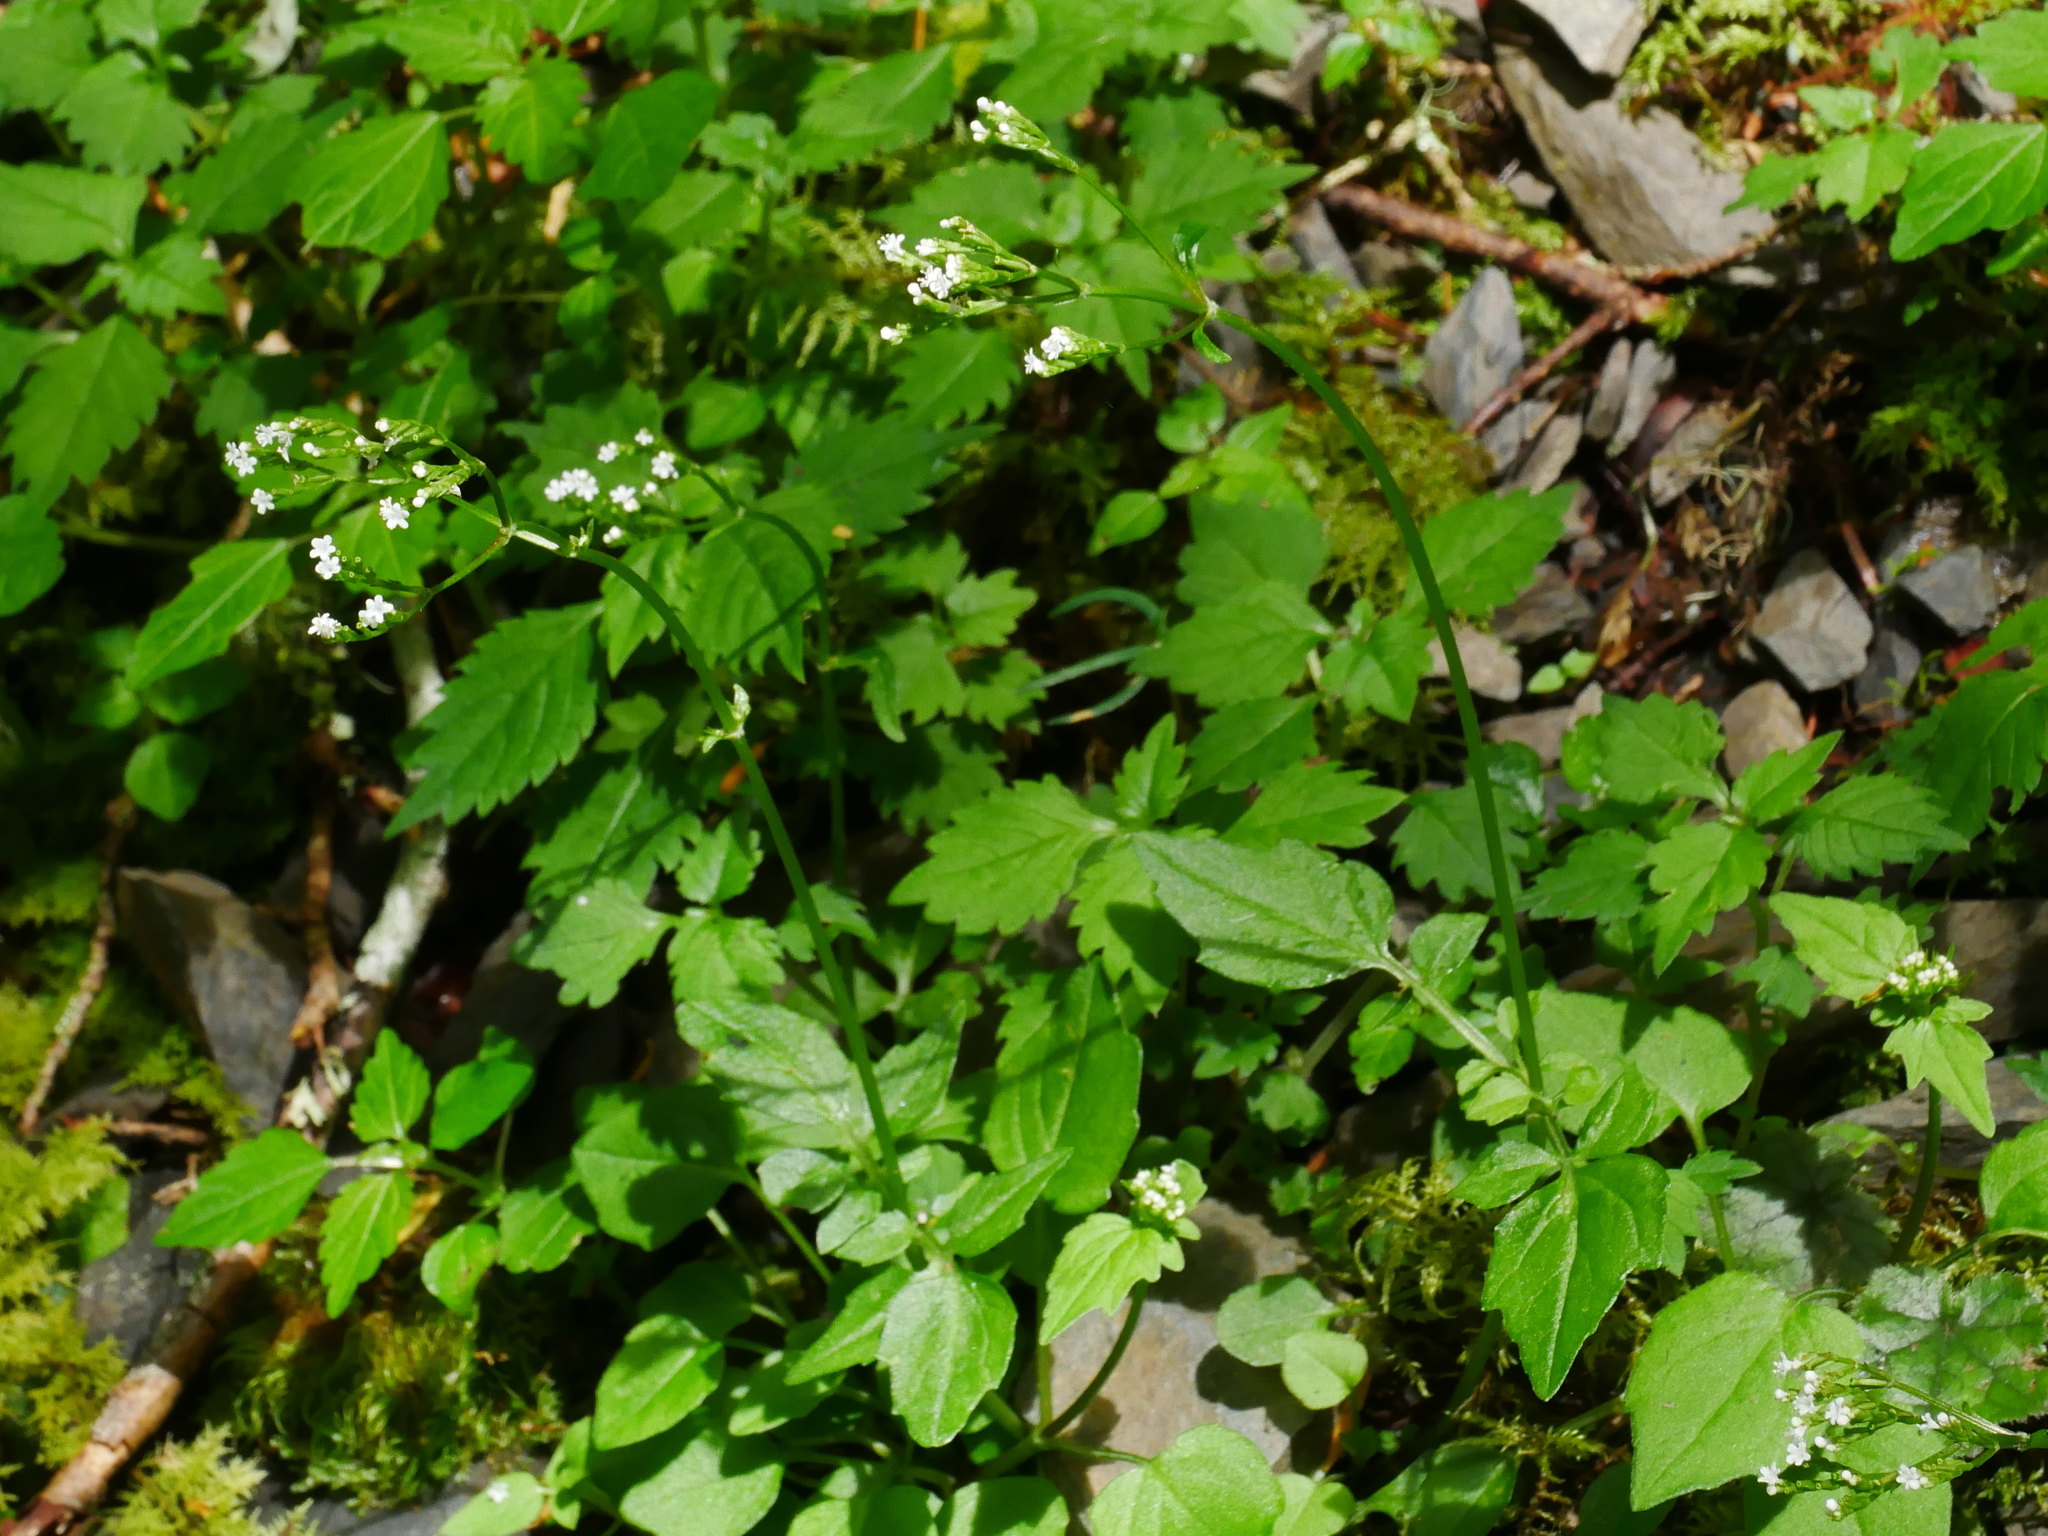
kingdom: Plantae
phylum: Tracheophyta
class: Magnoliopsida
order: Dipsacales
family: Caprifoliaceae
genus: Valeriana
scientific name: Valeriana flaccidissima
